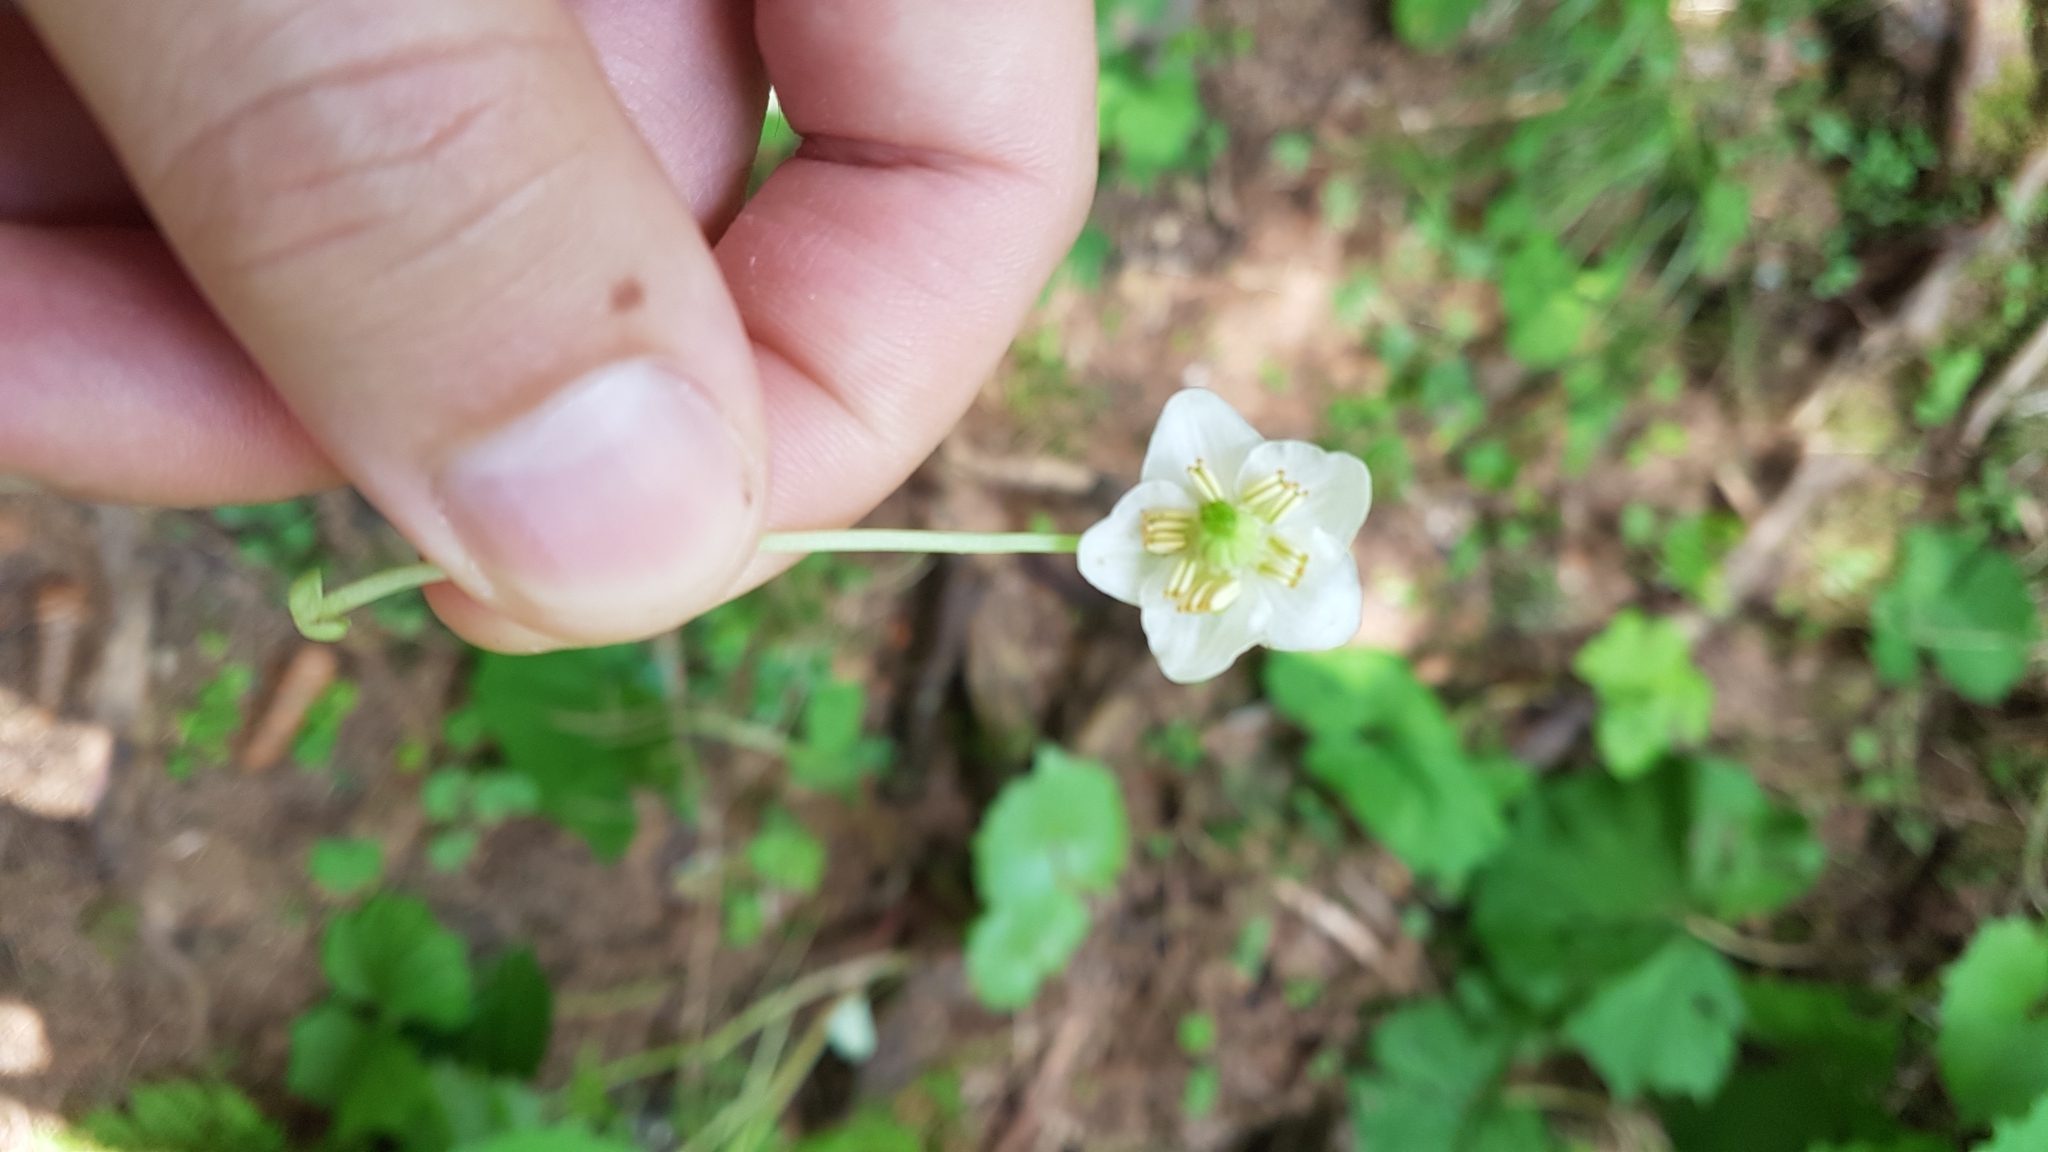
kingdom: Plantae
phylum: Tracheophyta
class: Magnoliopsida
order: Ericales
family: Ericaceae
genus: Moneses
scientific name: Moneses uniflora
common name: One-flowered wintergreen
